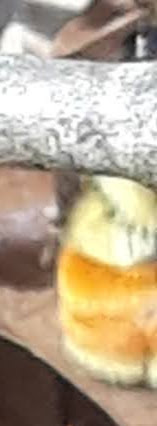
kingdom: Animalia
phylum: Arthropoda
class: Insecta
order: Hymenoptera
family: Apidae
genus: Bombus
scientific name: Bombus ternarius
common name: Tri-colored bumble bee
